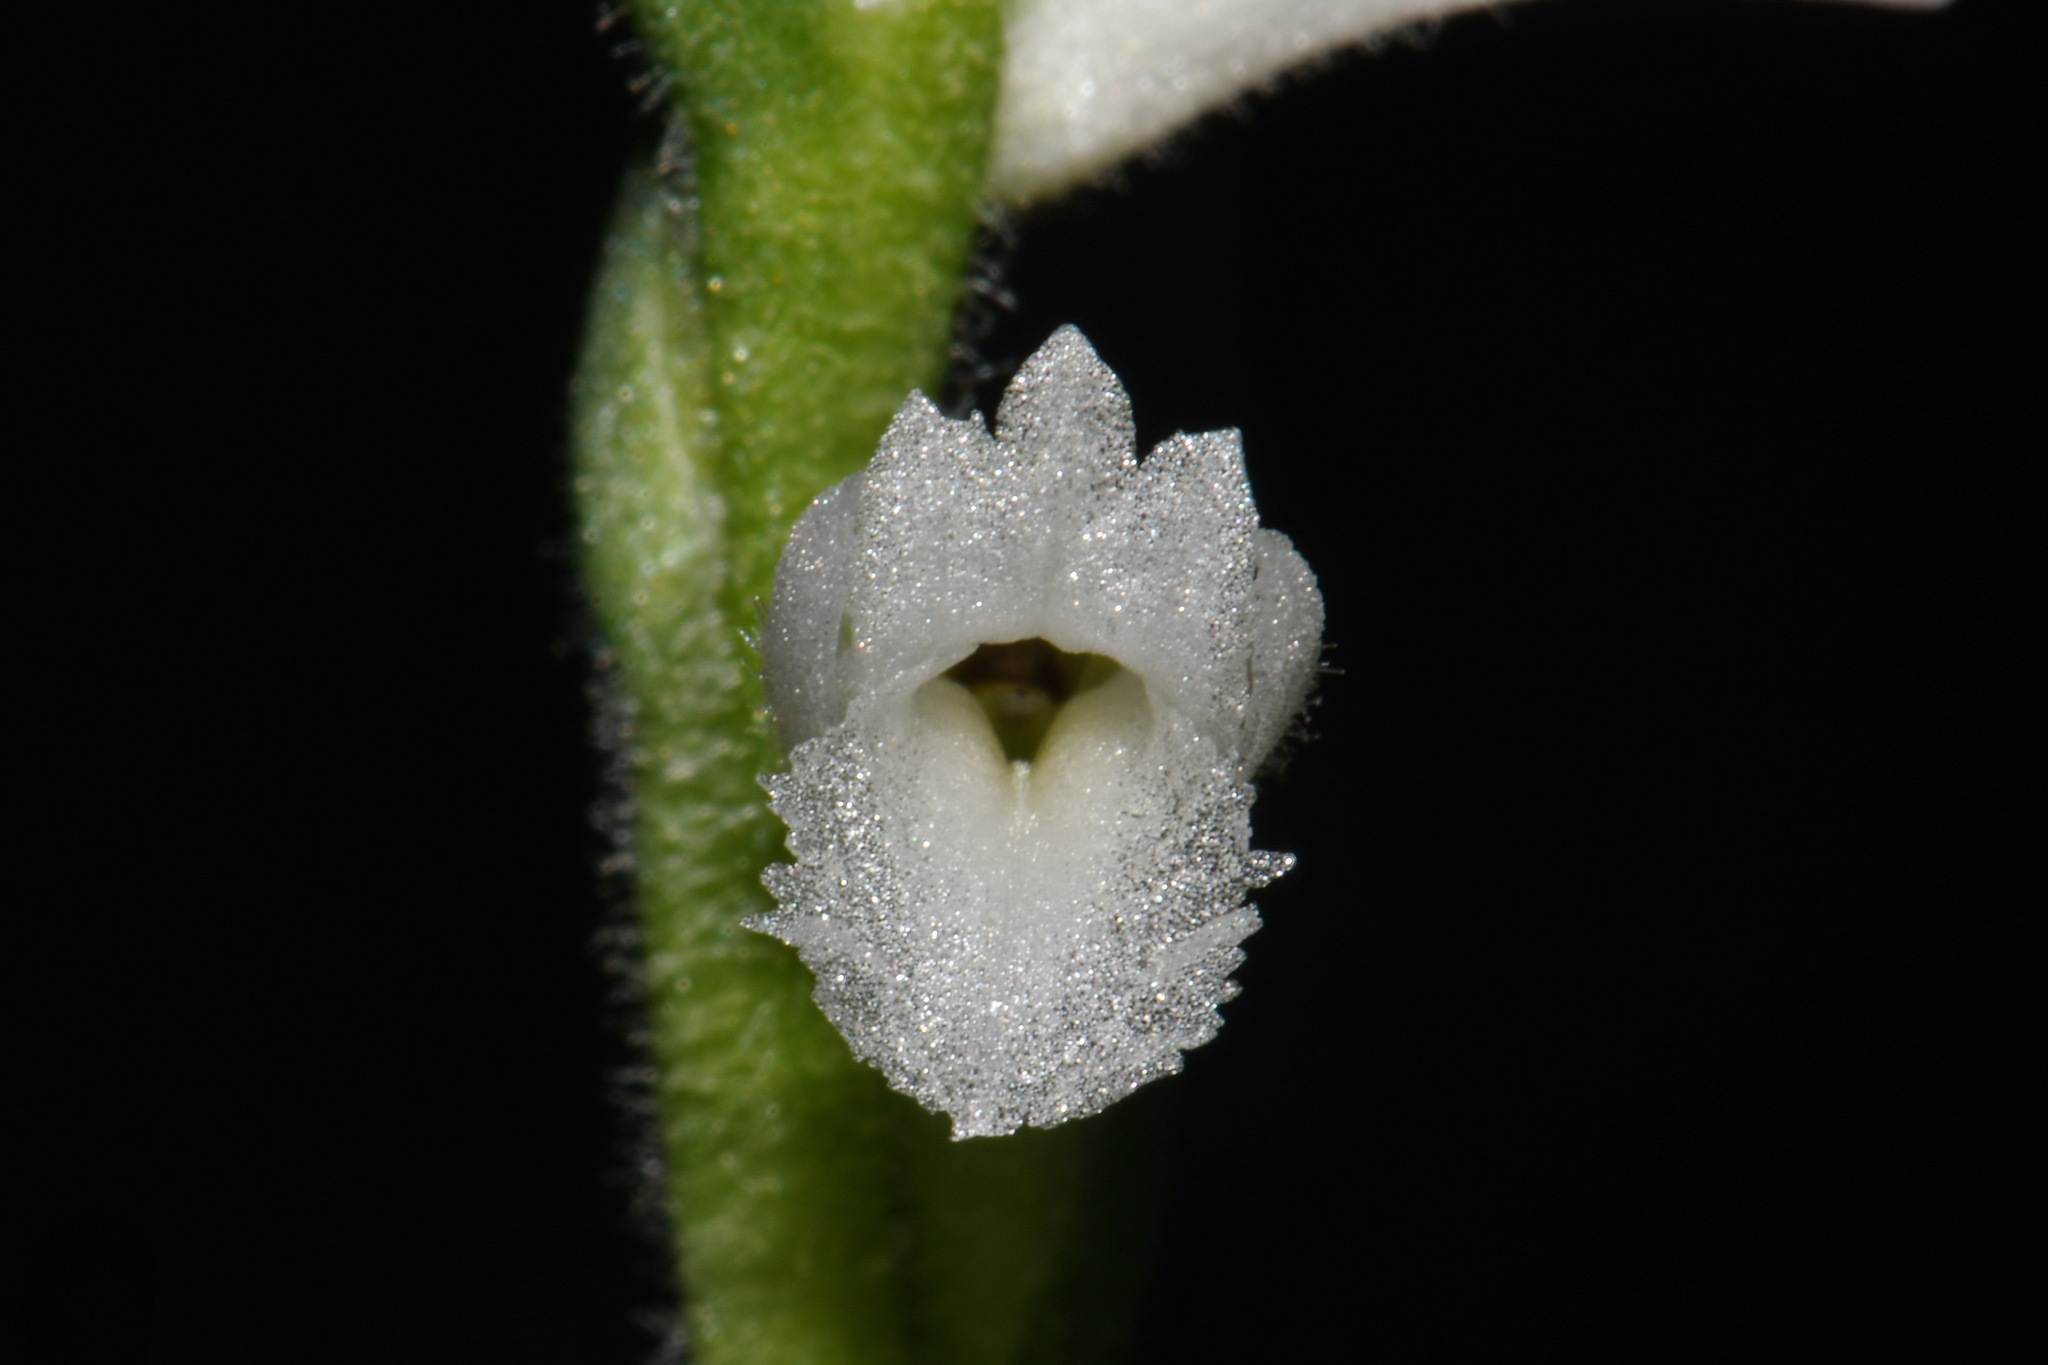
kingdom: Plantae
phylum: Tracheophyta
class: Liliopsida
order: Asparagales
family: Orchidaceae
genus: Spiranthes
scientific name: Spiranthes cernua
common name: Dropping ladies'-tresses
